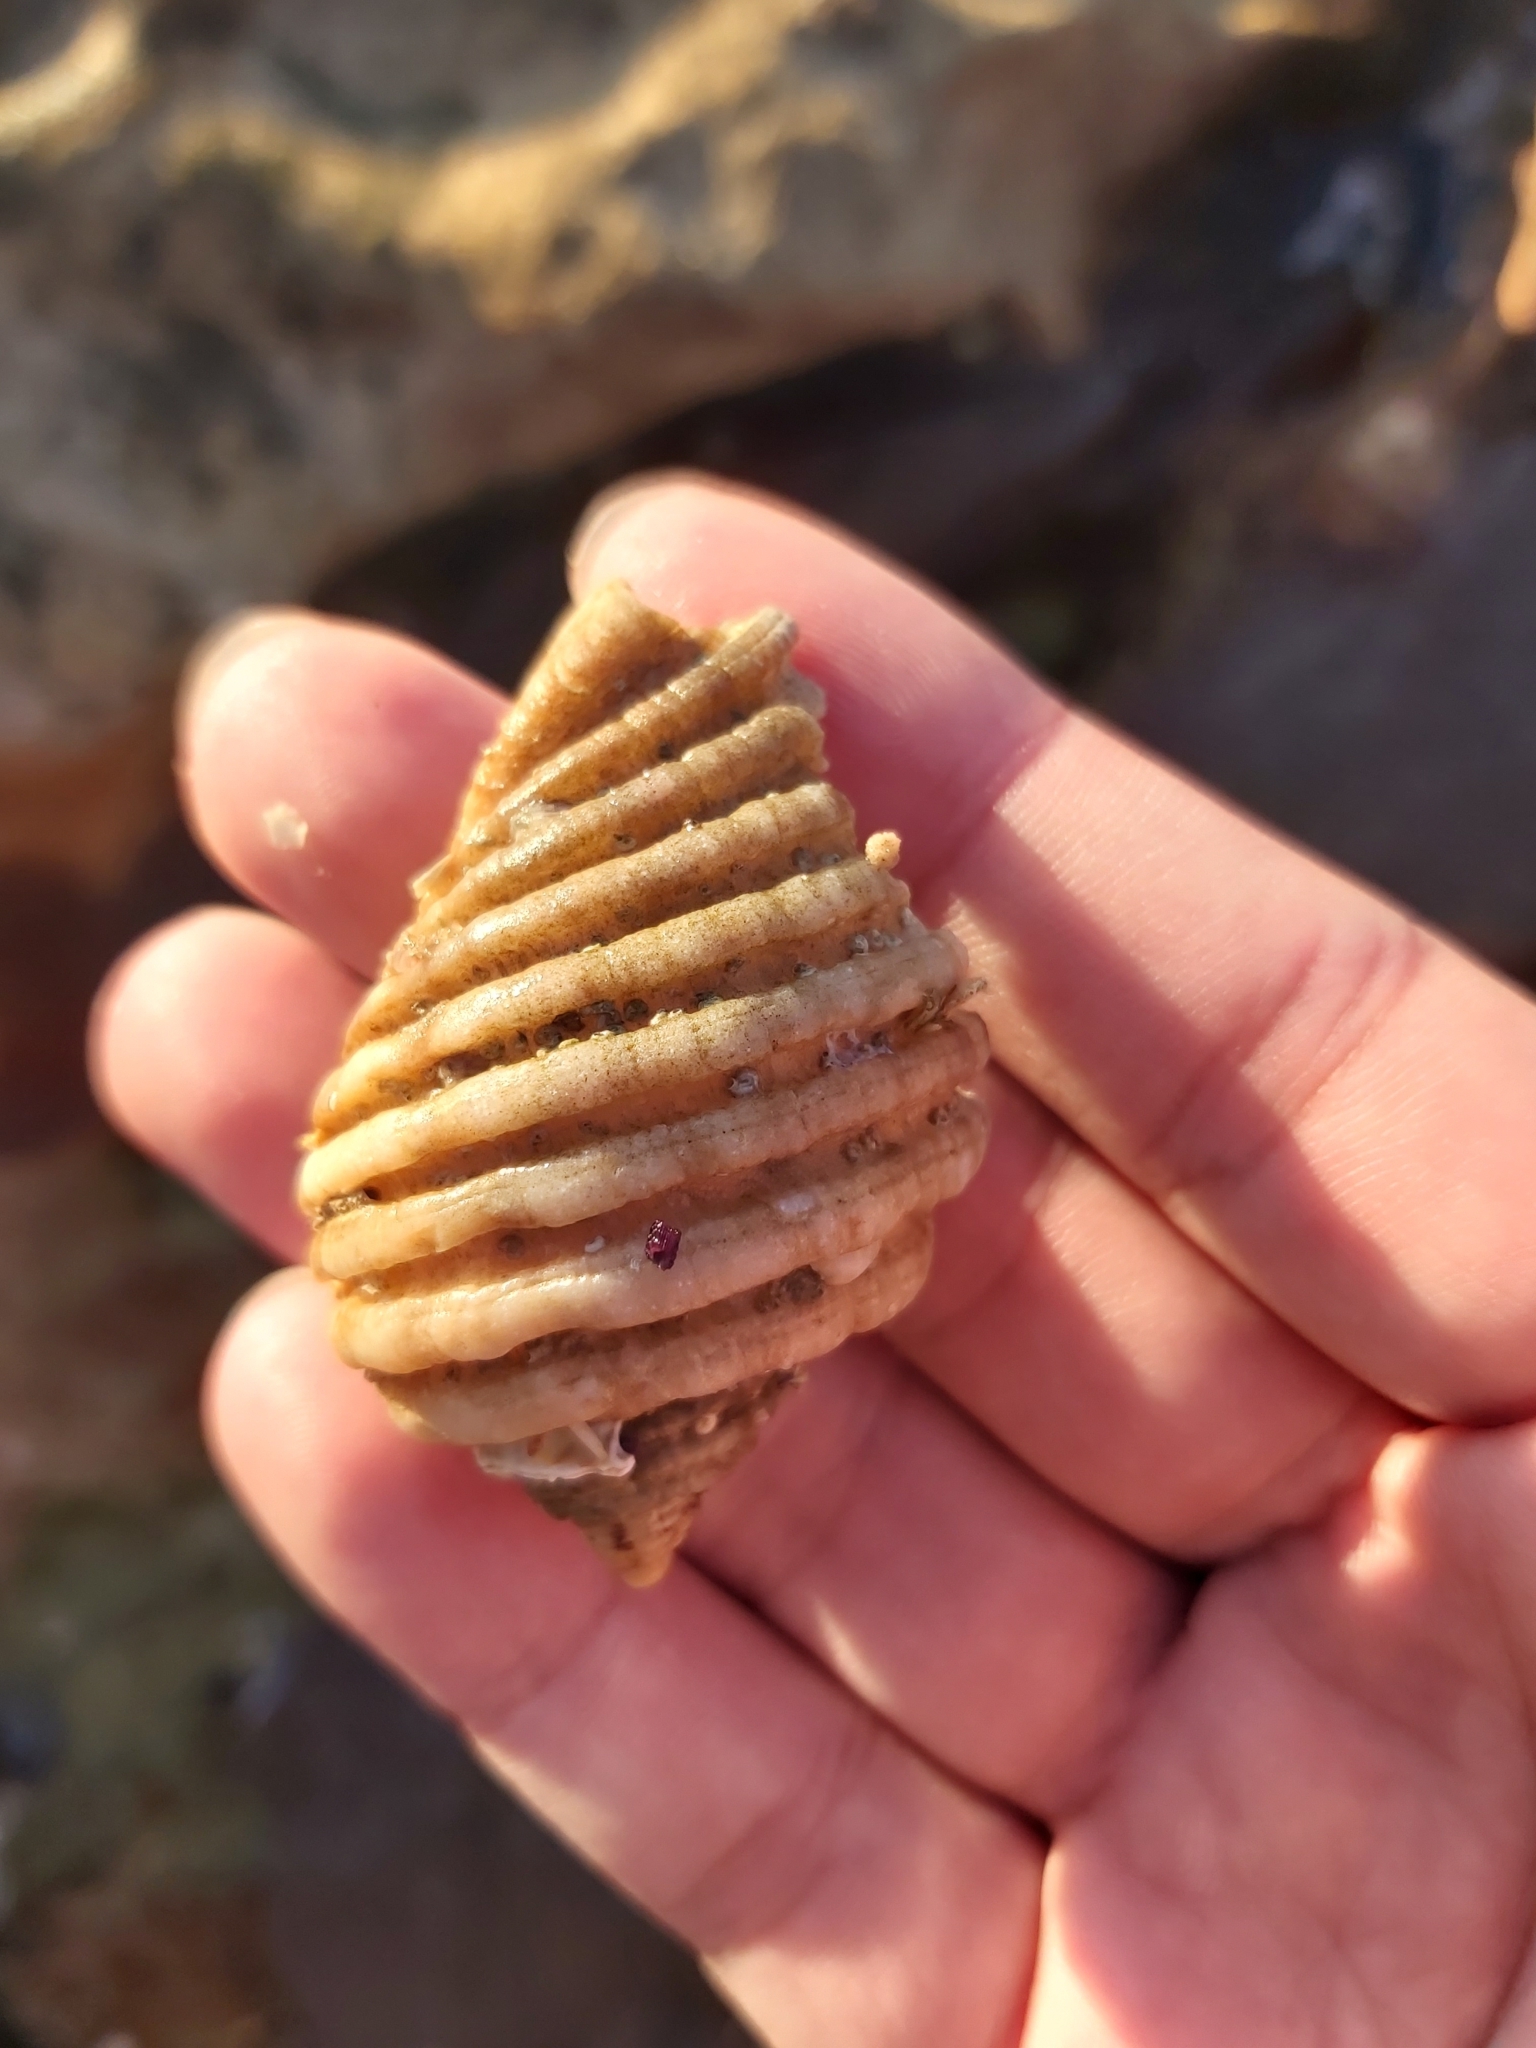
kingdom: Animalia
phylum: Mollusca
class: Gastropoda
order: Neogastropoda
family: Muricidae
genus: Dicathais
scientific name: Dicathais orbita
